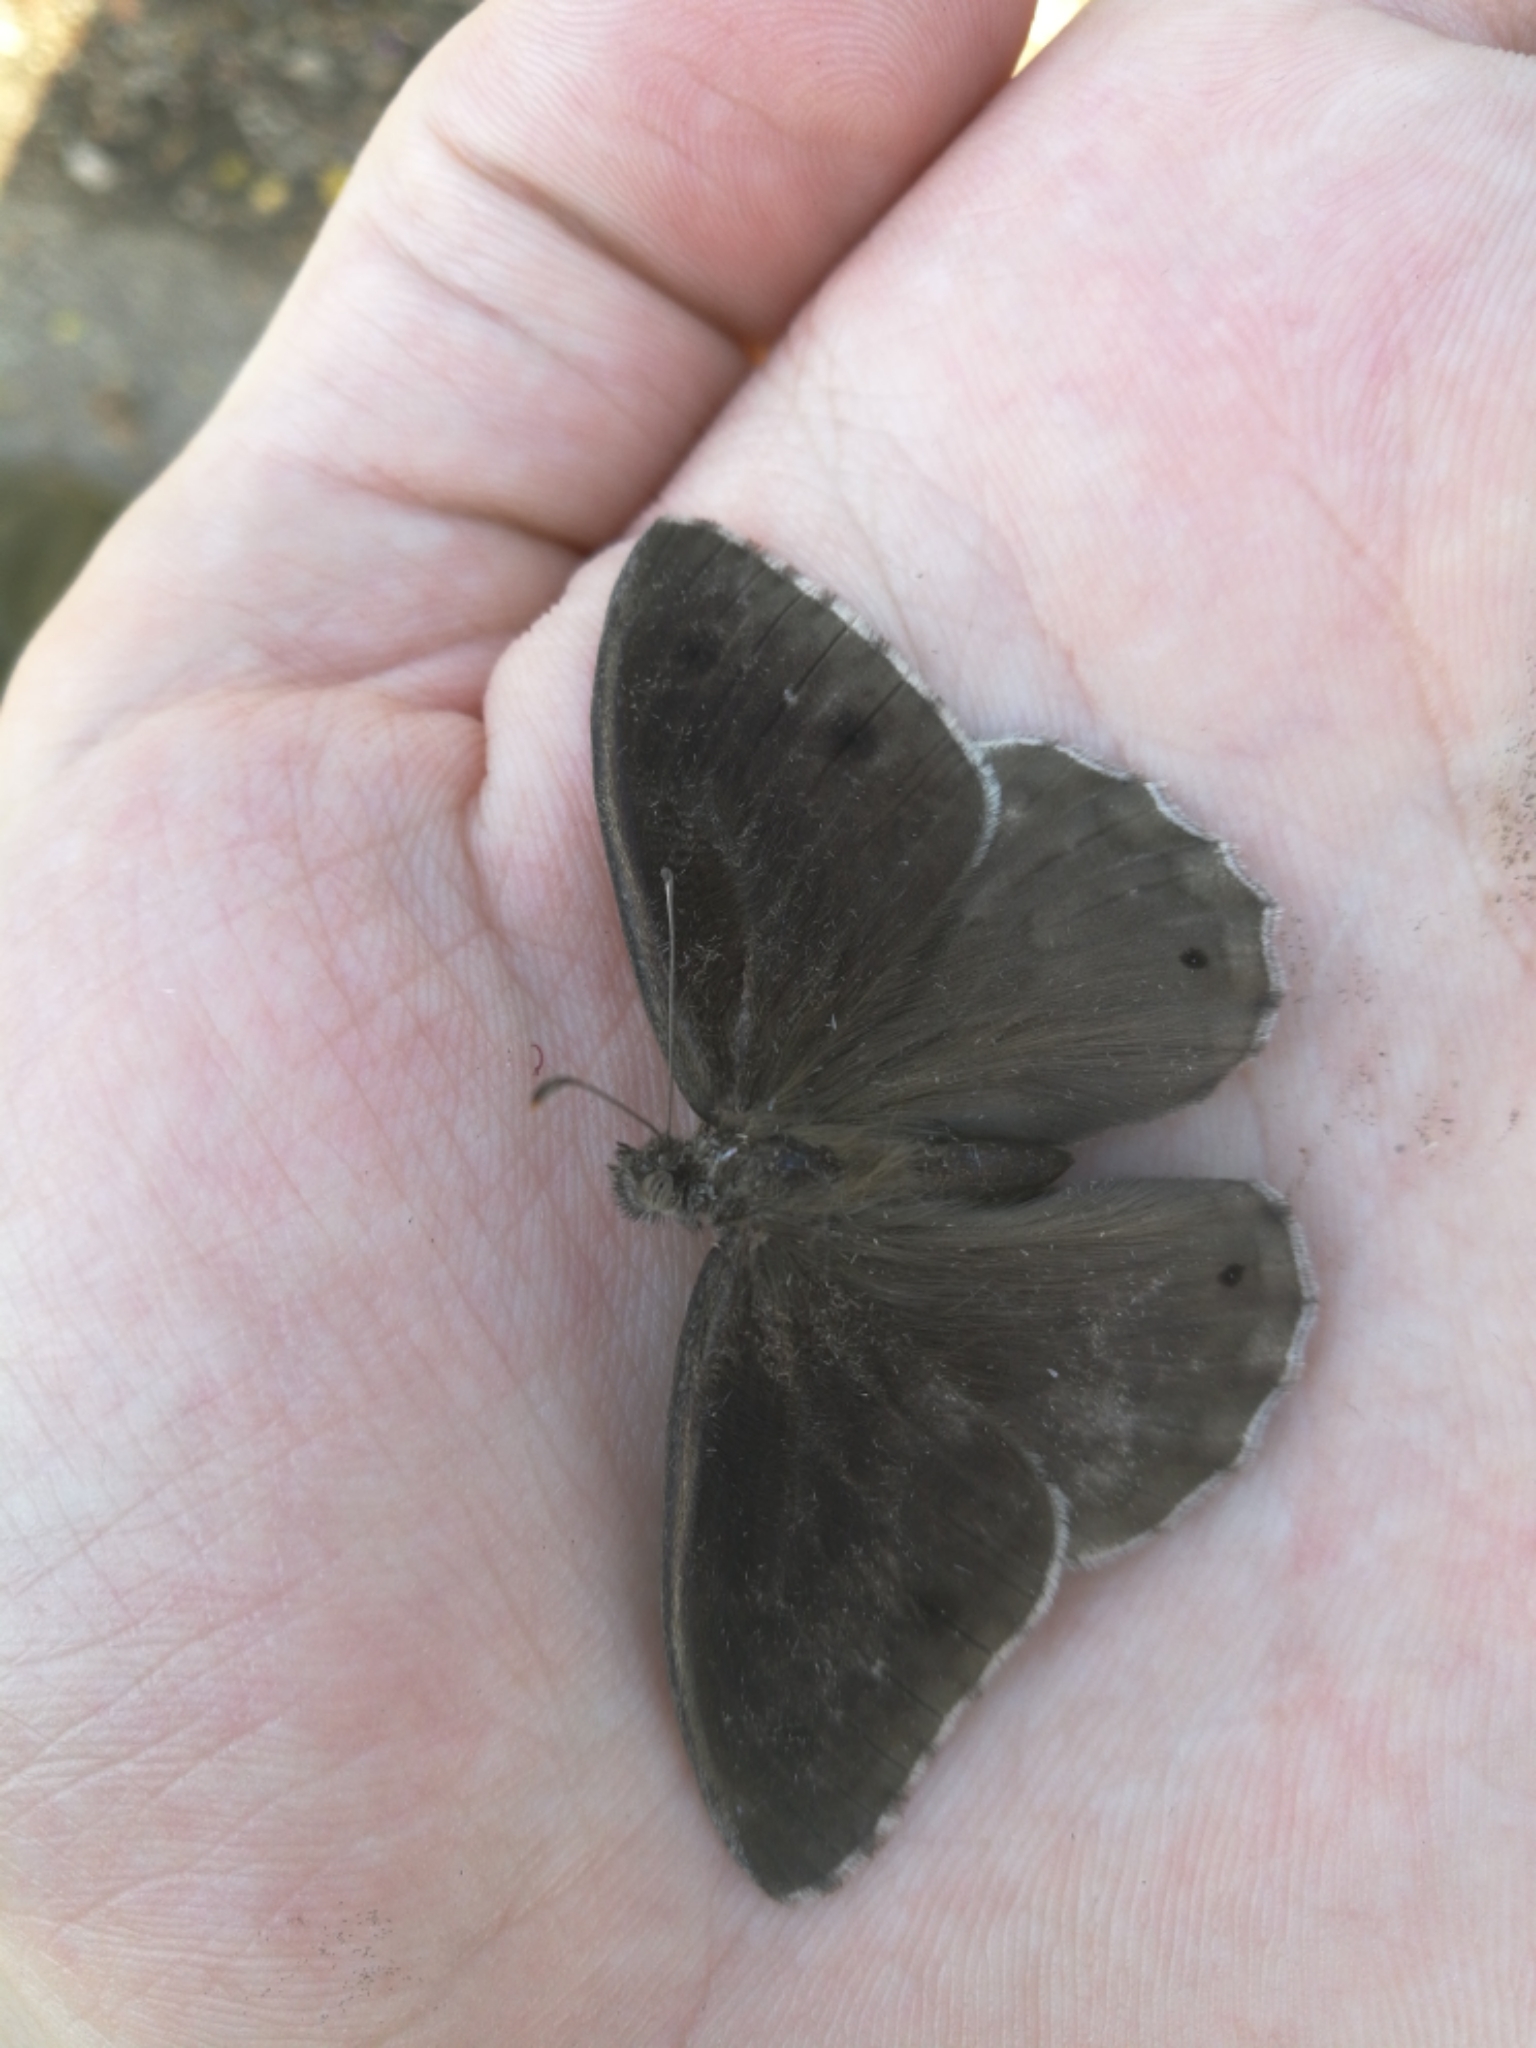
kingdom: Animalia
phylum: Arthropoda
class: Insecta
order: Lepidoptera
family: Nymphalidae
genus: Hipparchia
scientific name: Hipparchia statilinus
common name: Tree grayling
